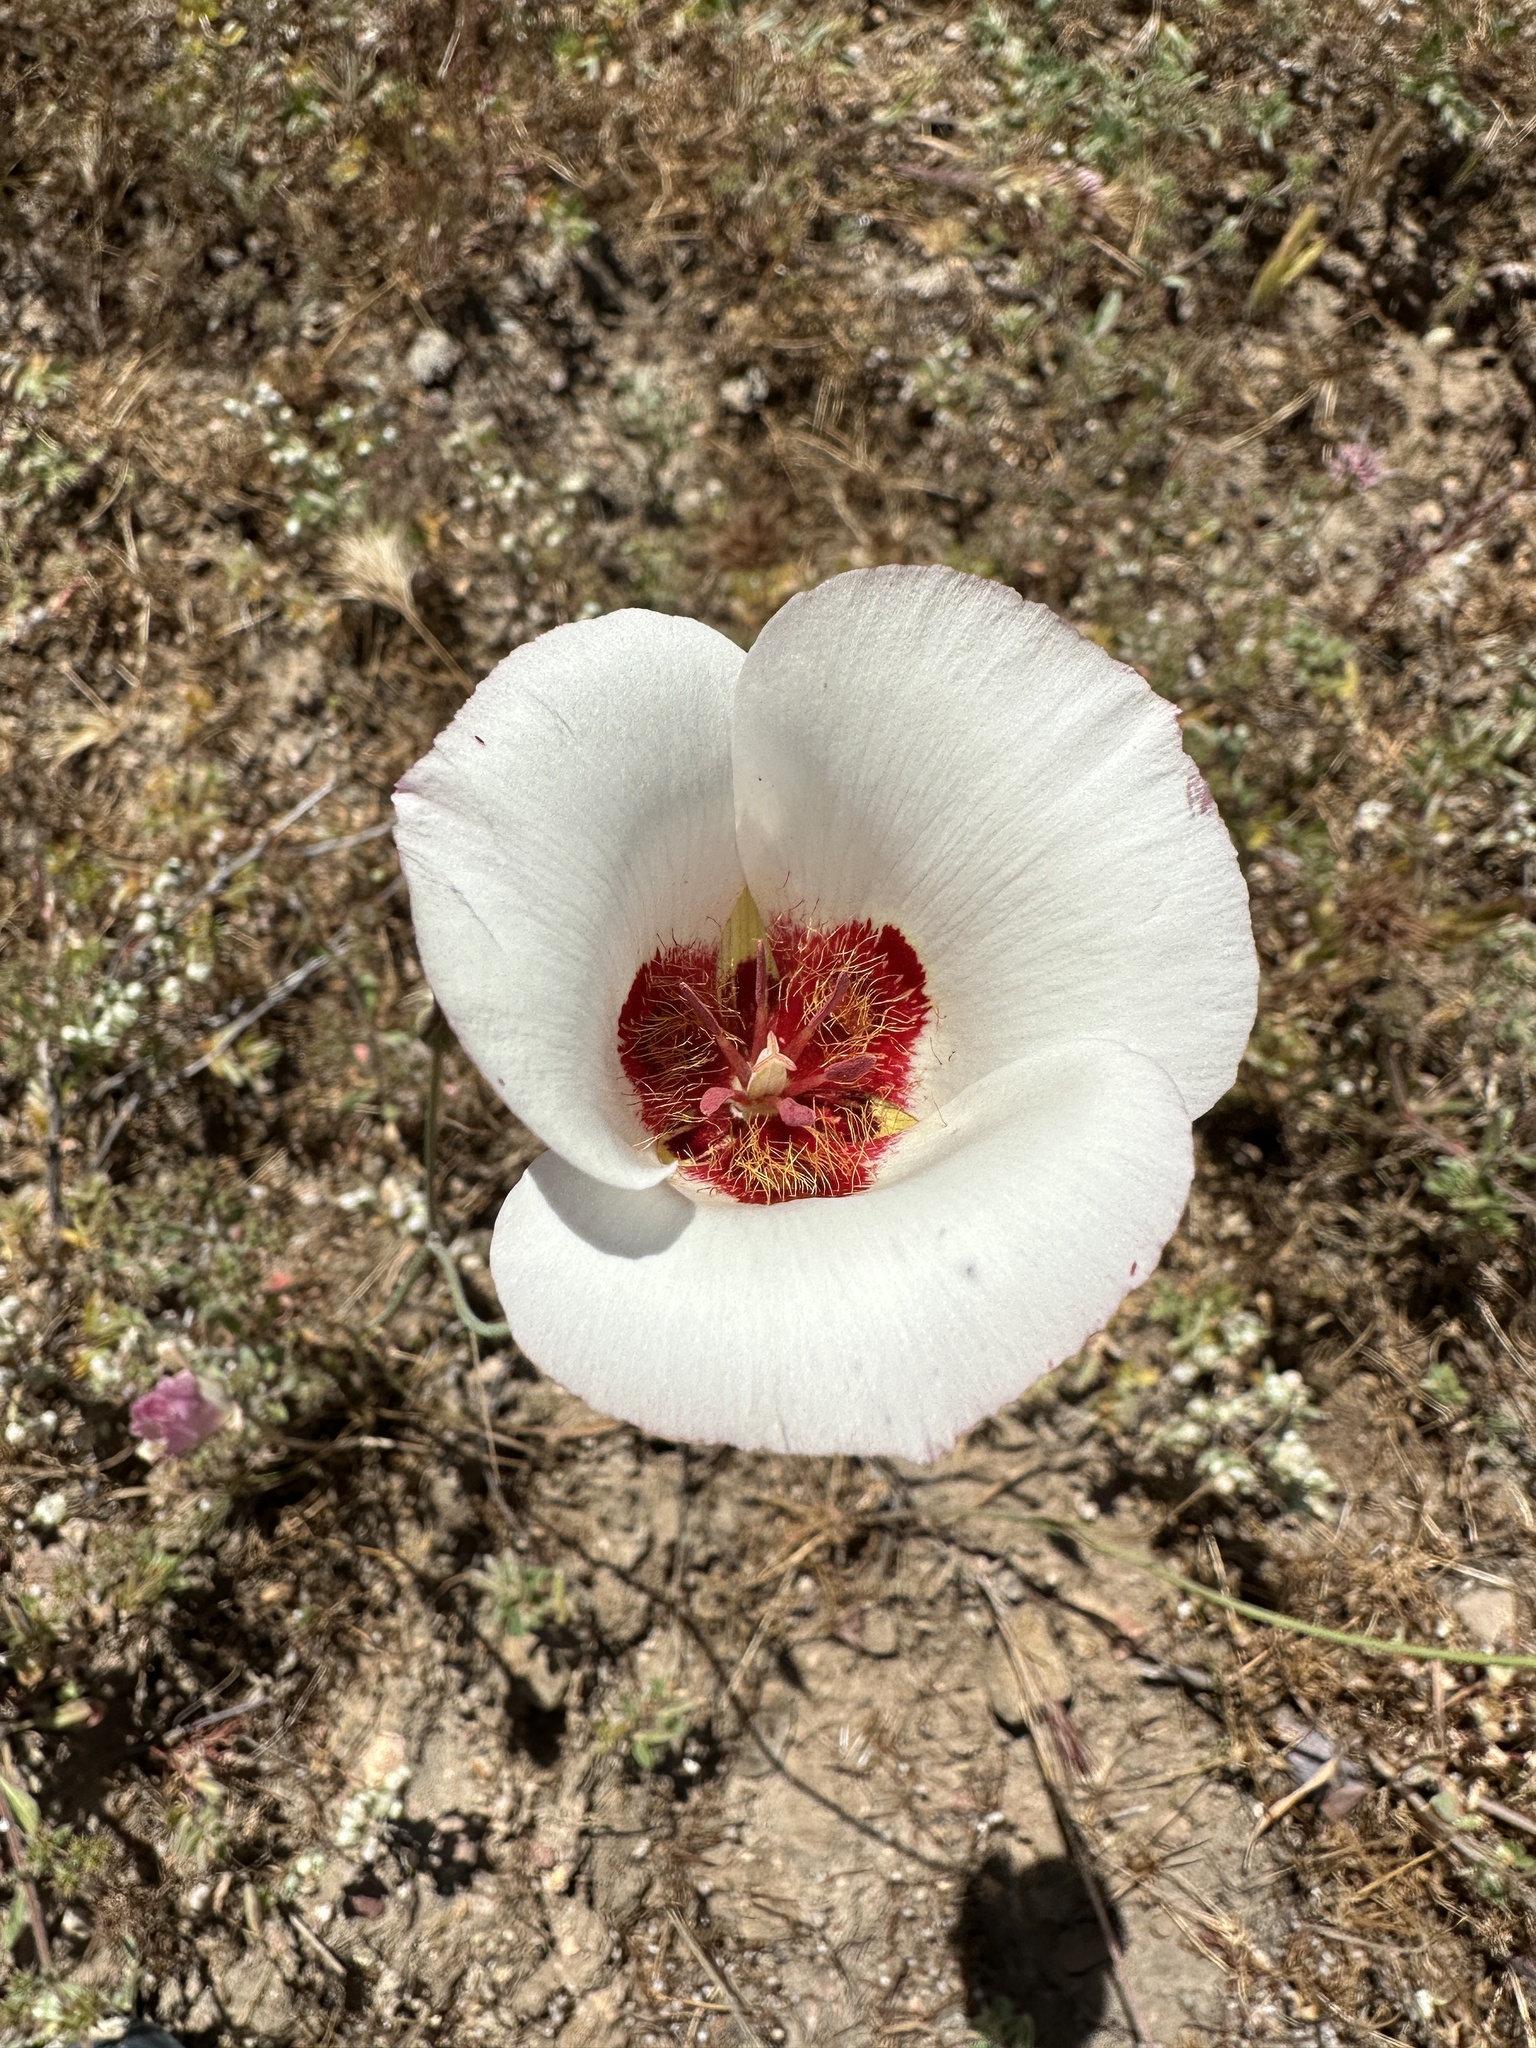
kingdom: Plantae
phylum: Tracheophyta
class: Liliopsida
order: Liliales
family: Liliaceae
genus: Calochortus
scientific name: Calochortus simulans
